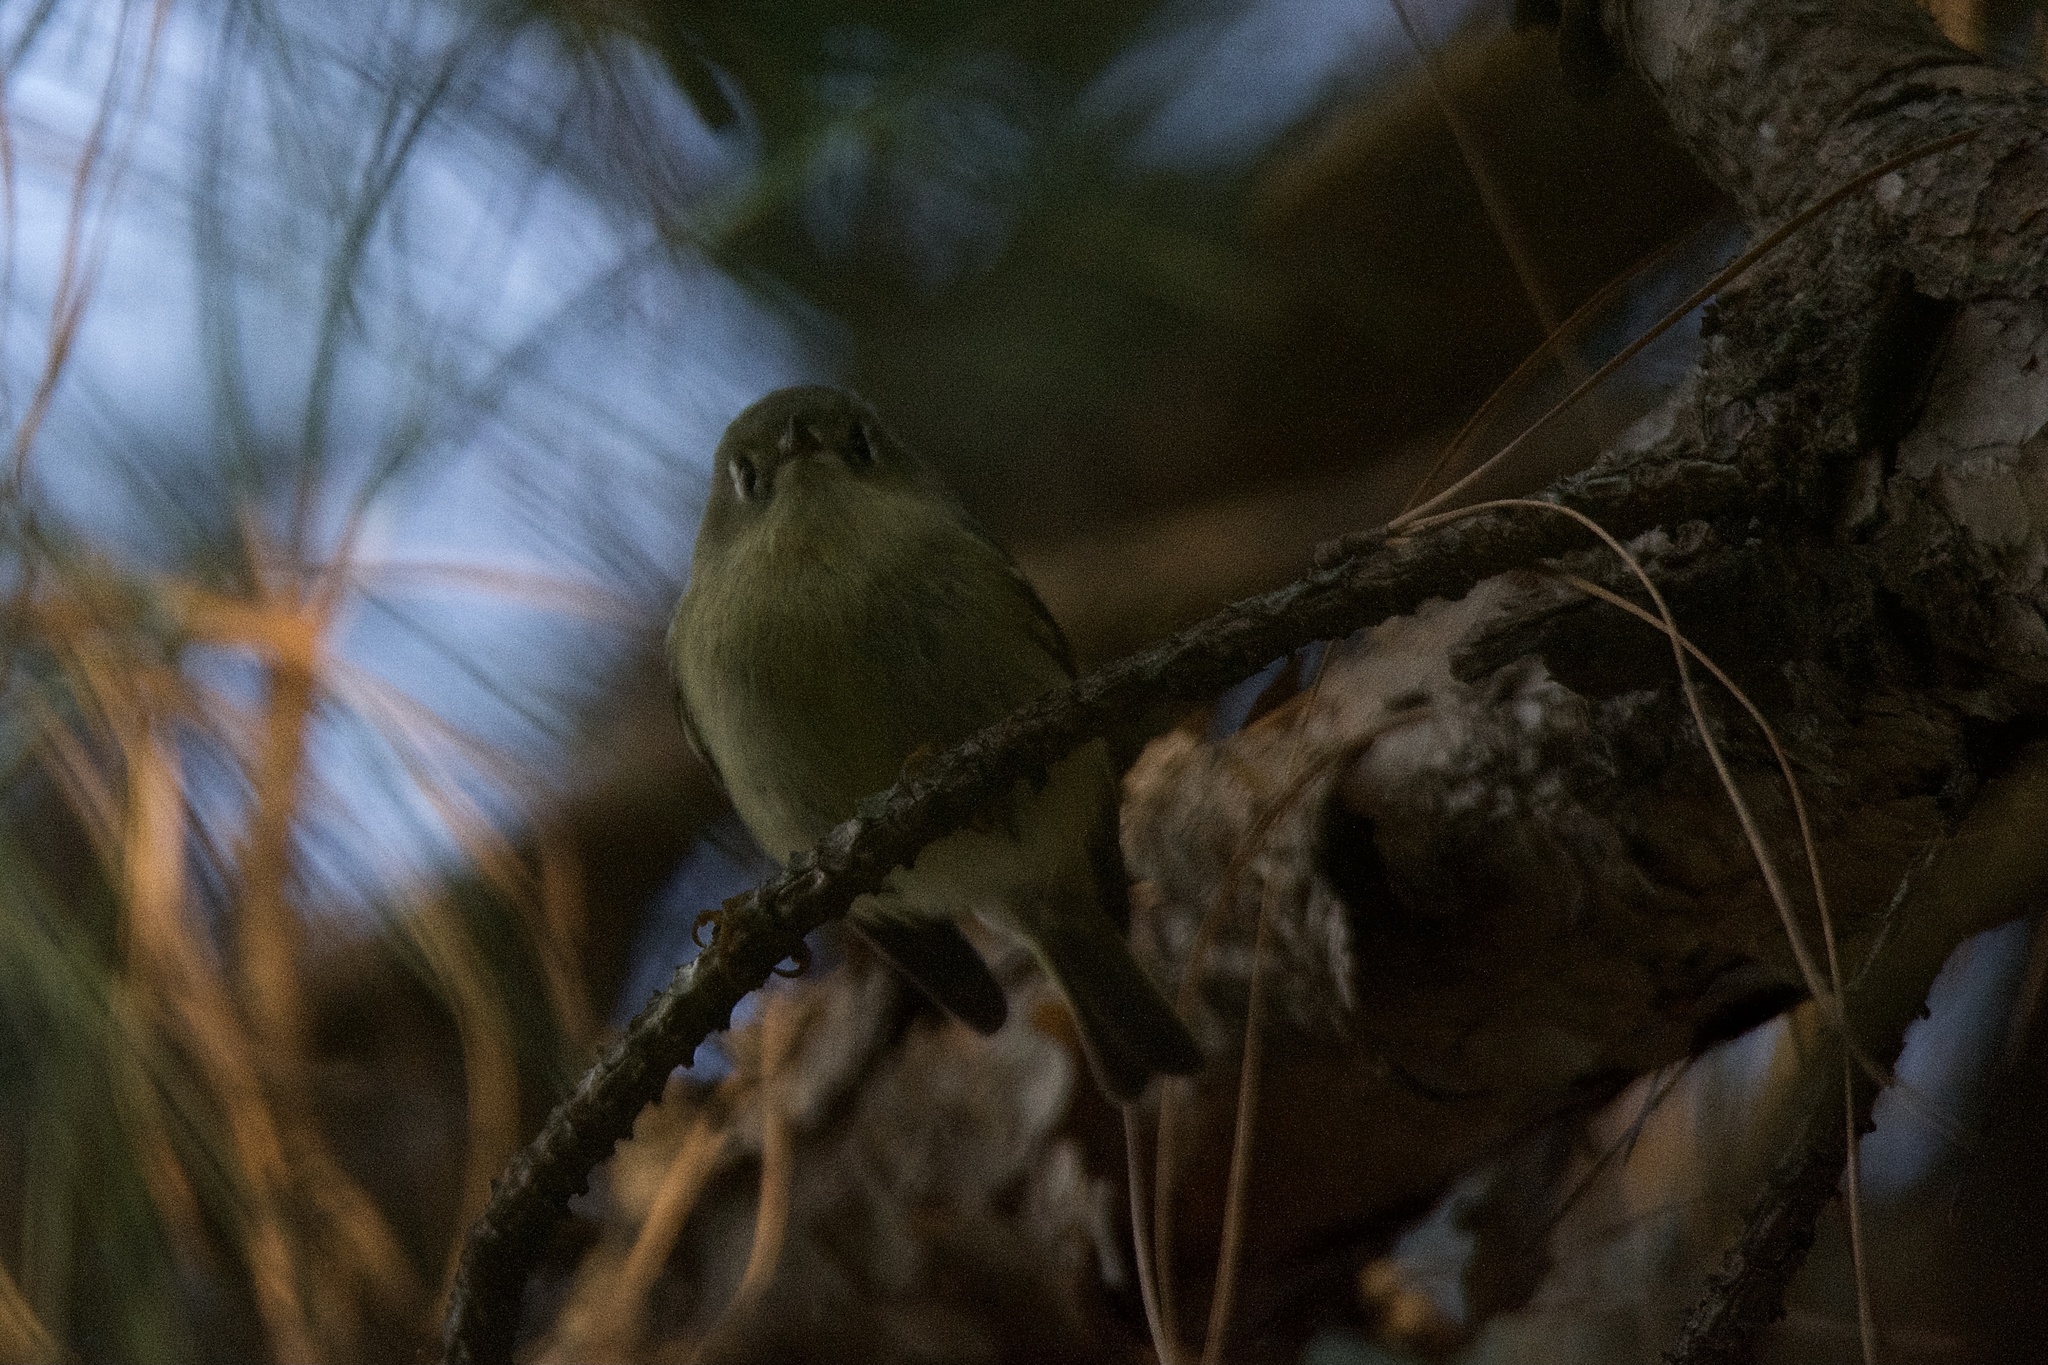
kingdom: Animalia
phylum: Chordata
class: Aves
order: Passeriformes
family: Regulidae
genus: Regulus
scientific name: Regulus calendula
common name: Ruby-crowned kinglet
